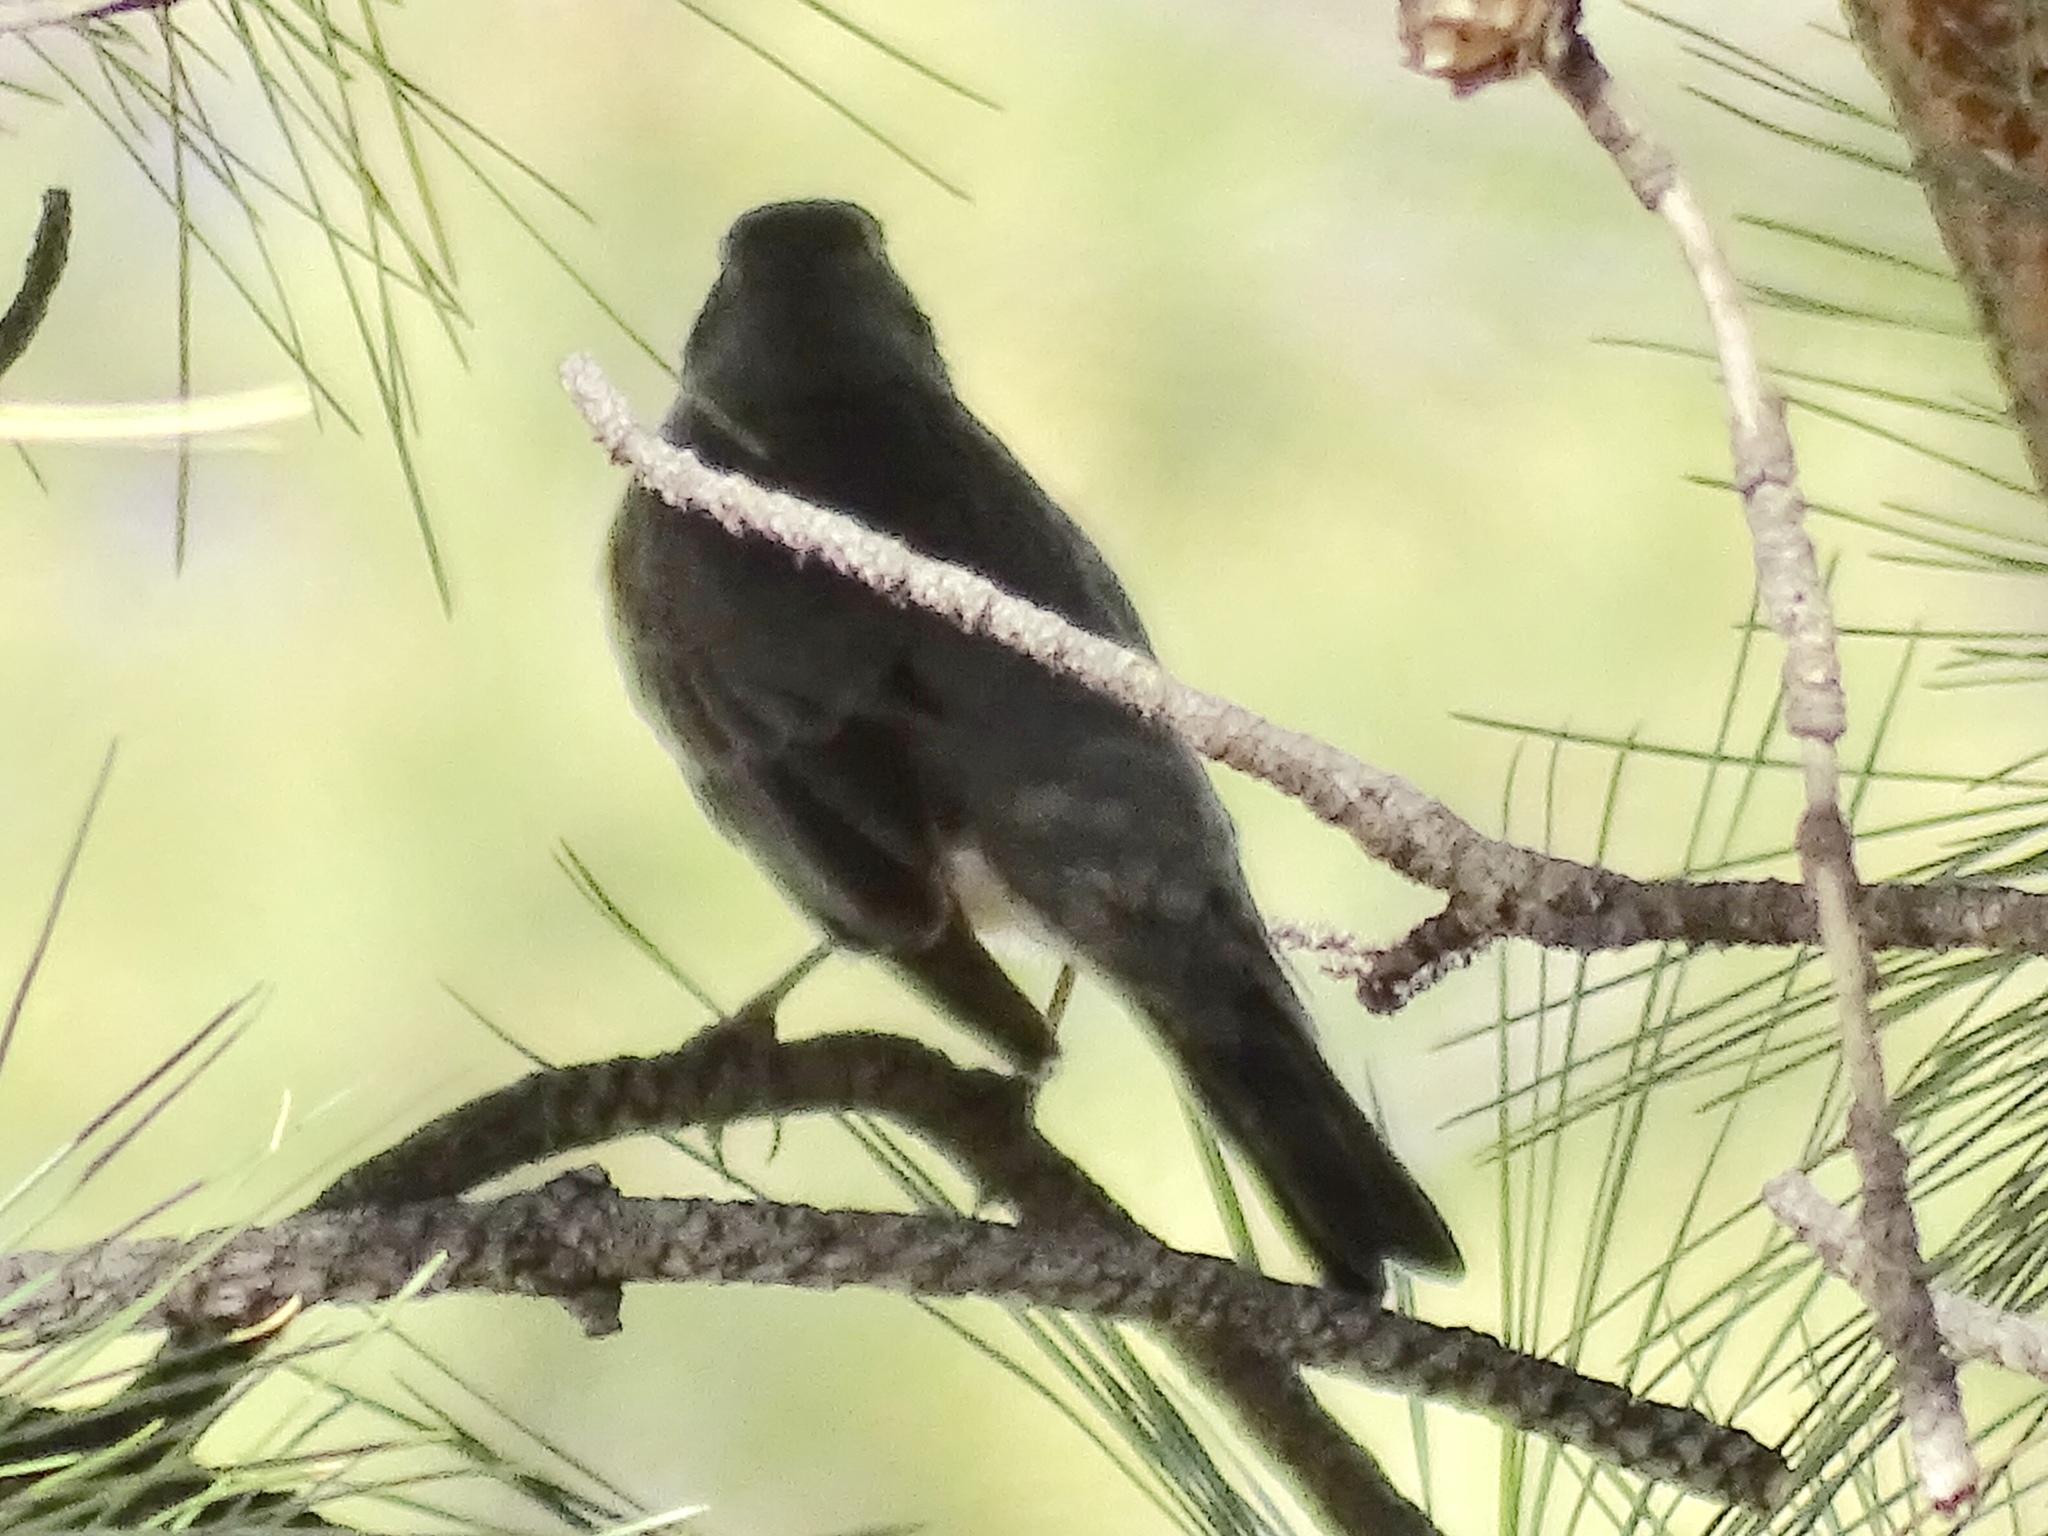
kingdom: Animalia
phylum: Chordata
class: Aves
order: Passeriformes
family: Turdidae
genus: Turdus
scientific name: Turdus migratorius
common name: American robin
